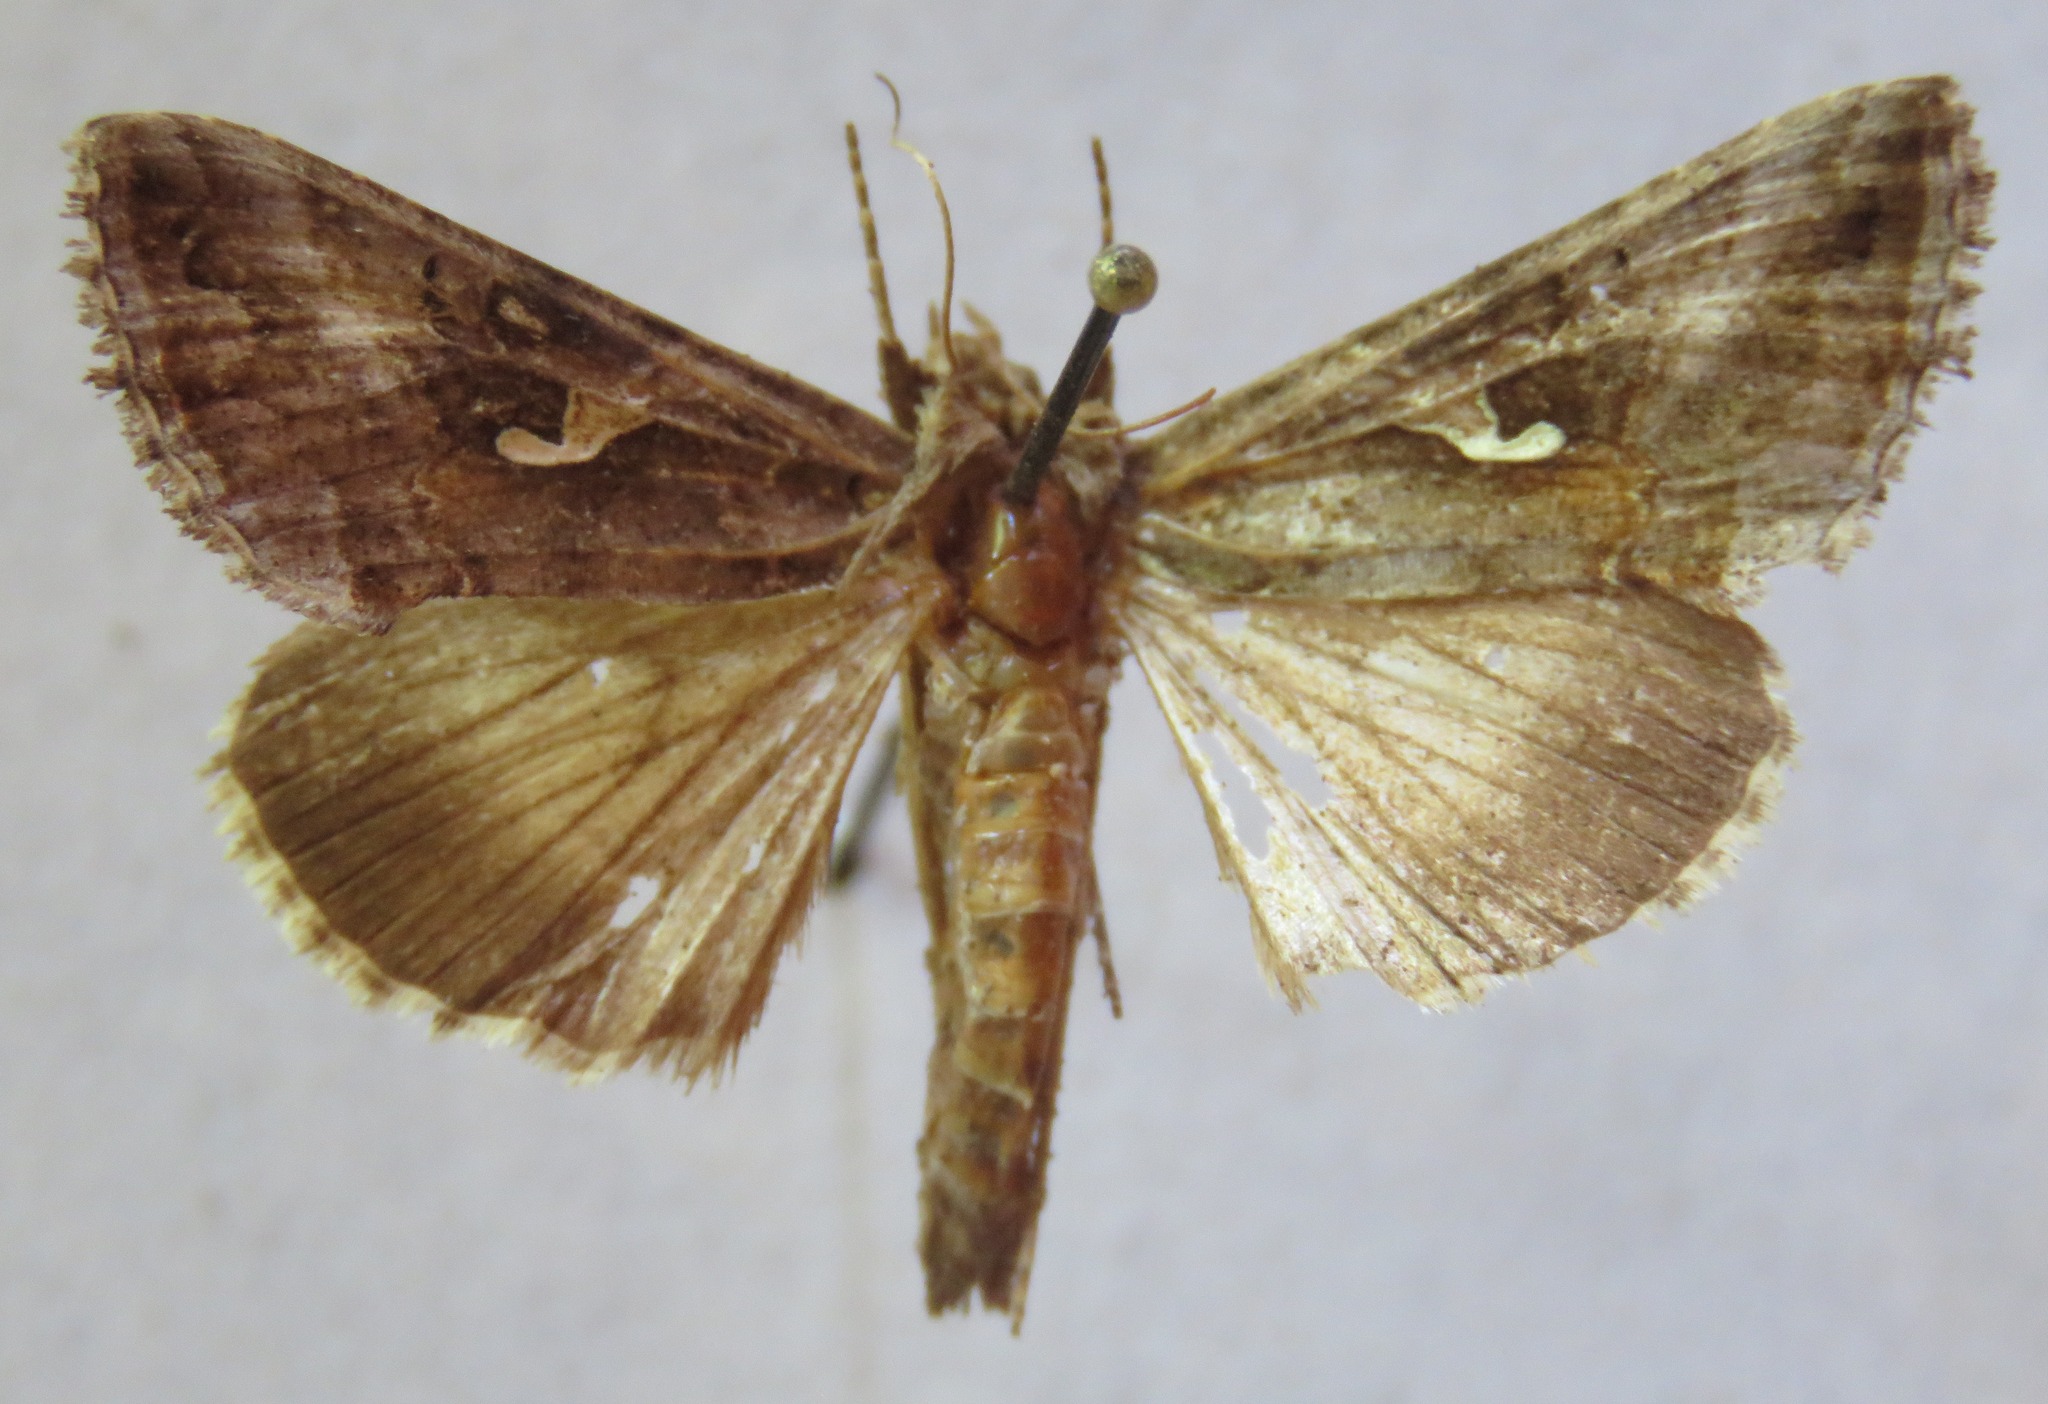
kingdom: Animalia
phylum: Arthropoda
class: Insecta
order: Lepidoptera
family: Noctuidae
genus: Autographa
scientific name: Autographa gamma
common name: Silver y
